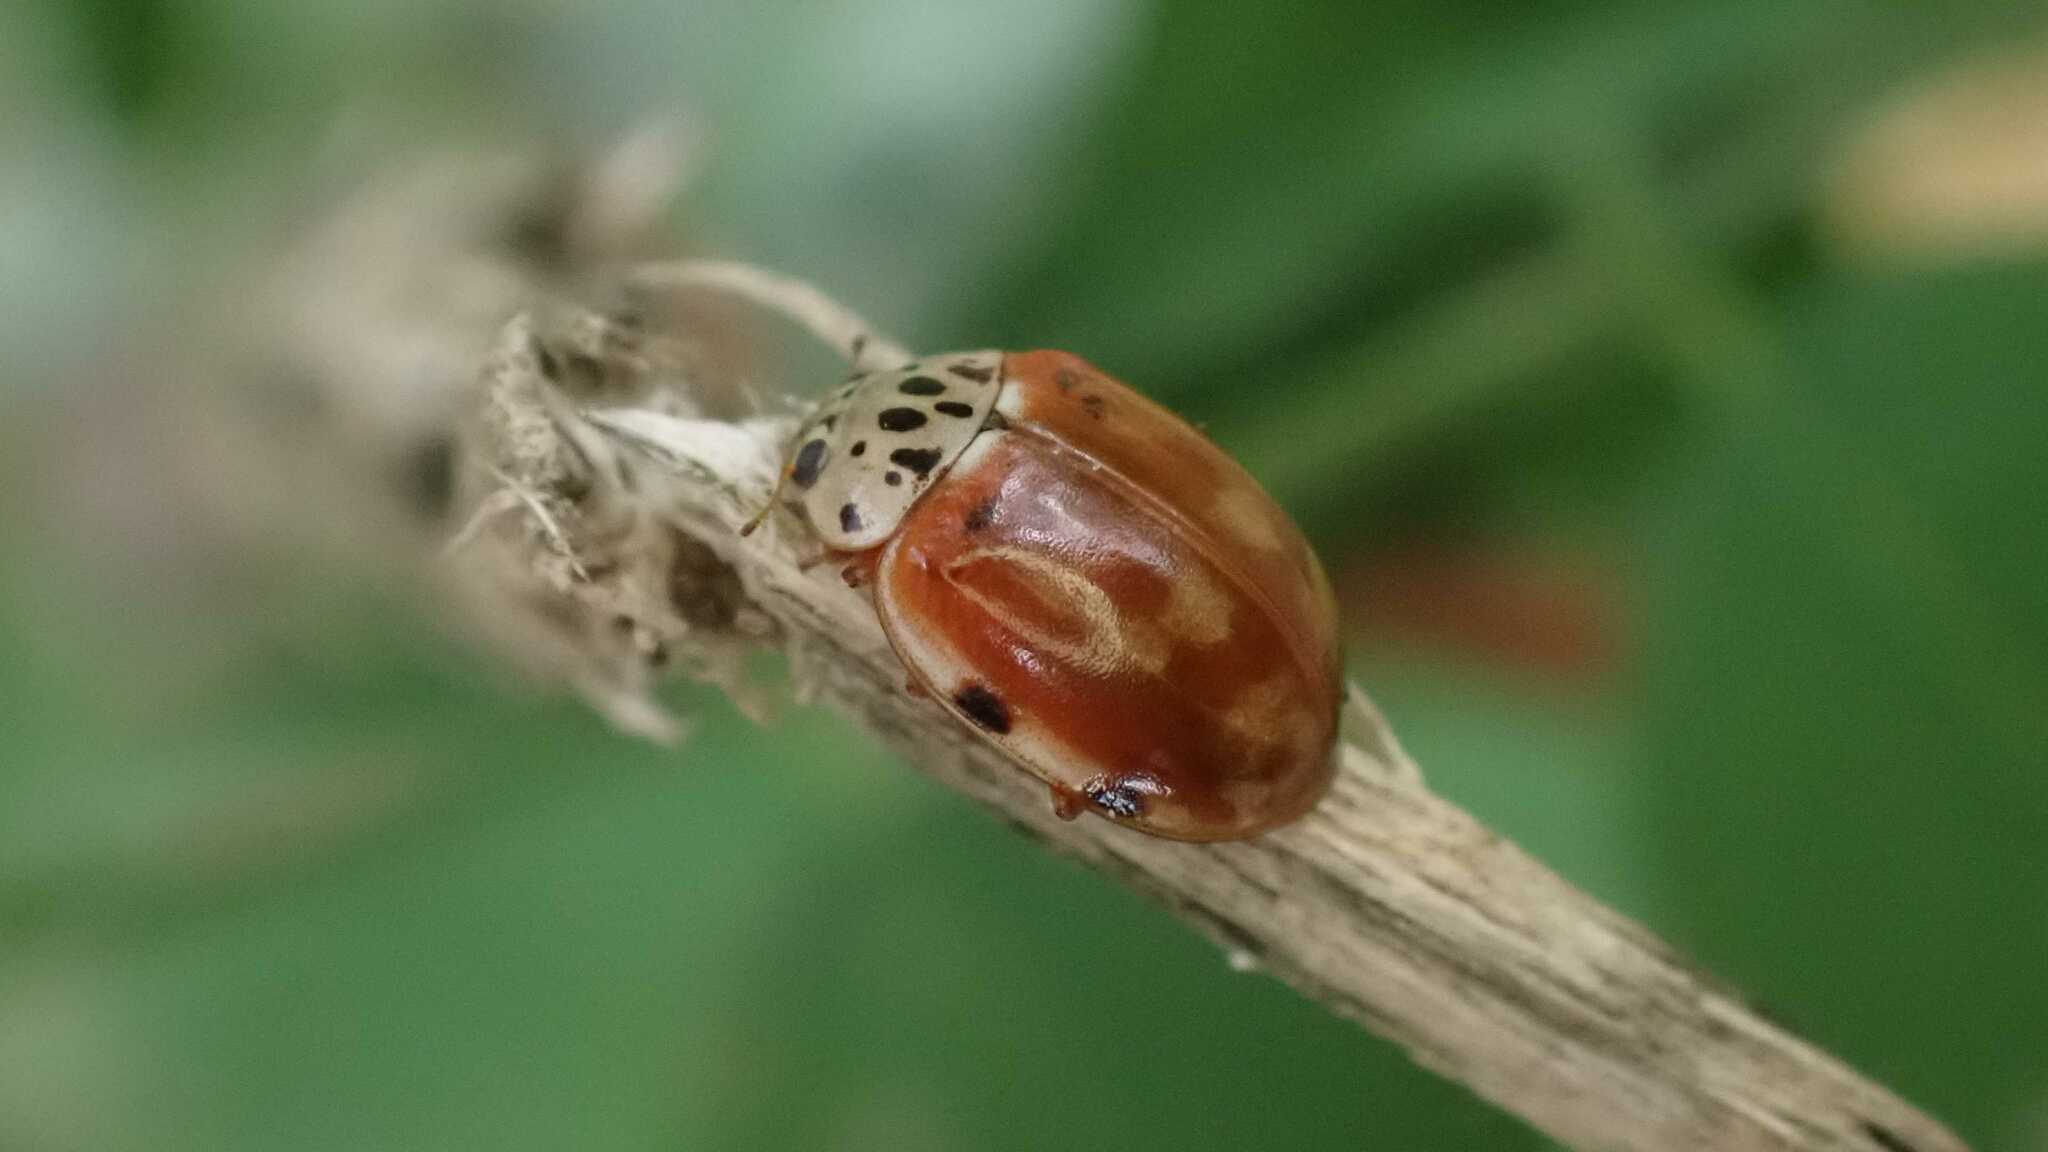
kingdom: Animalia
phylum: Arthropoda
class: Insecta
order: Coleoptera
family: Coccinellidae
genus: Harmonia
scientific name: Harmonia quadripunctata
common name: Cream-streaked ladybird
